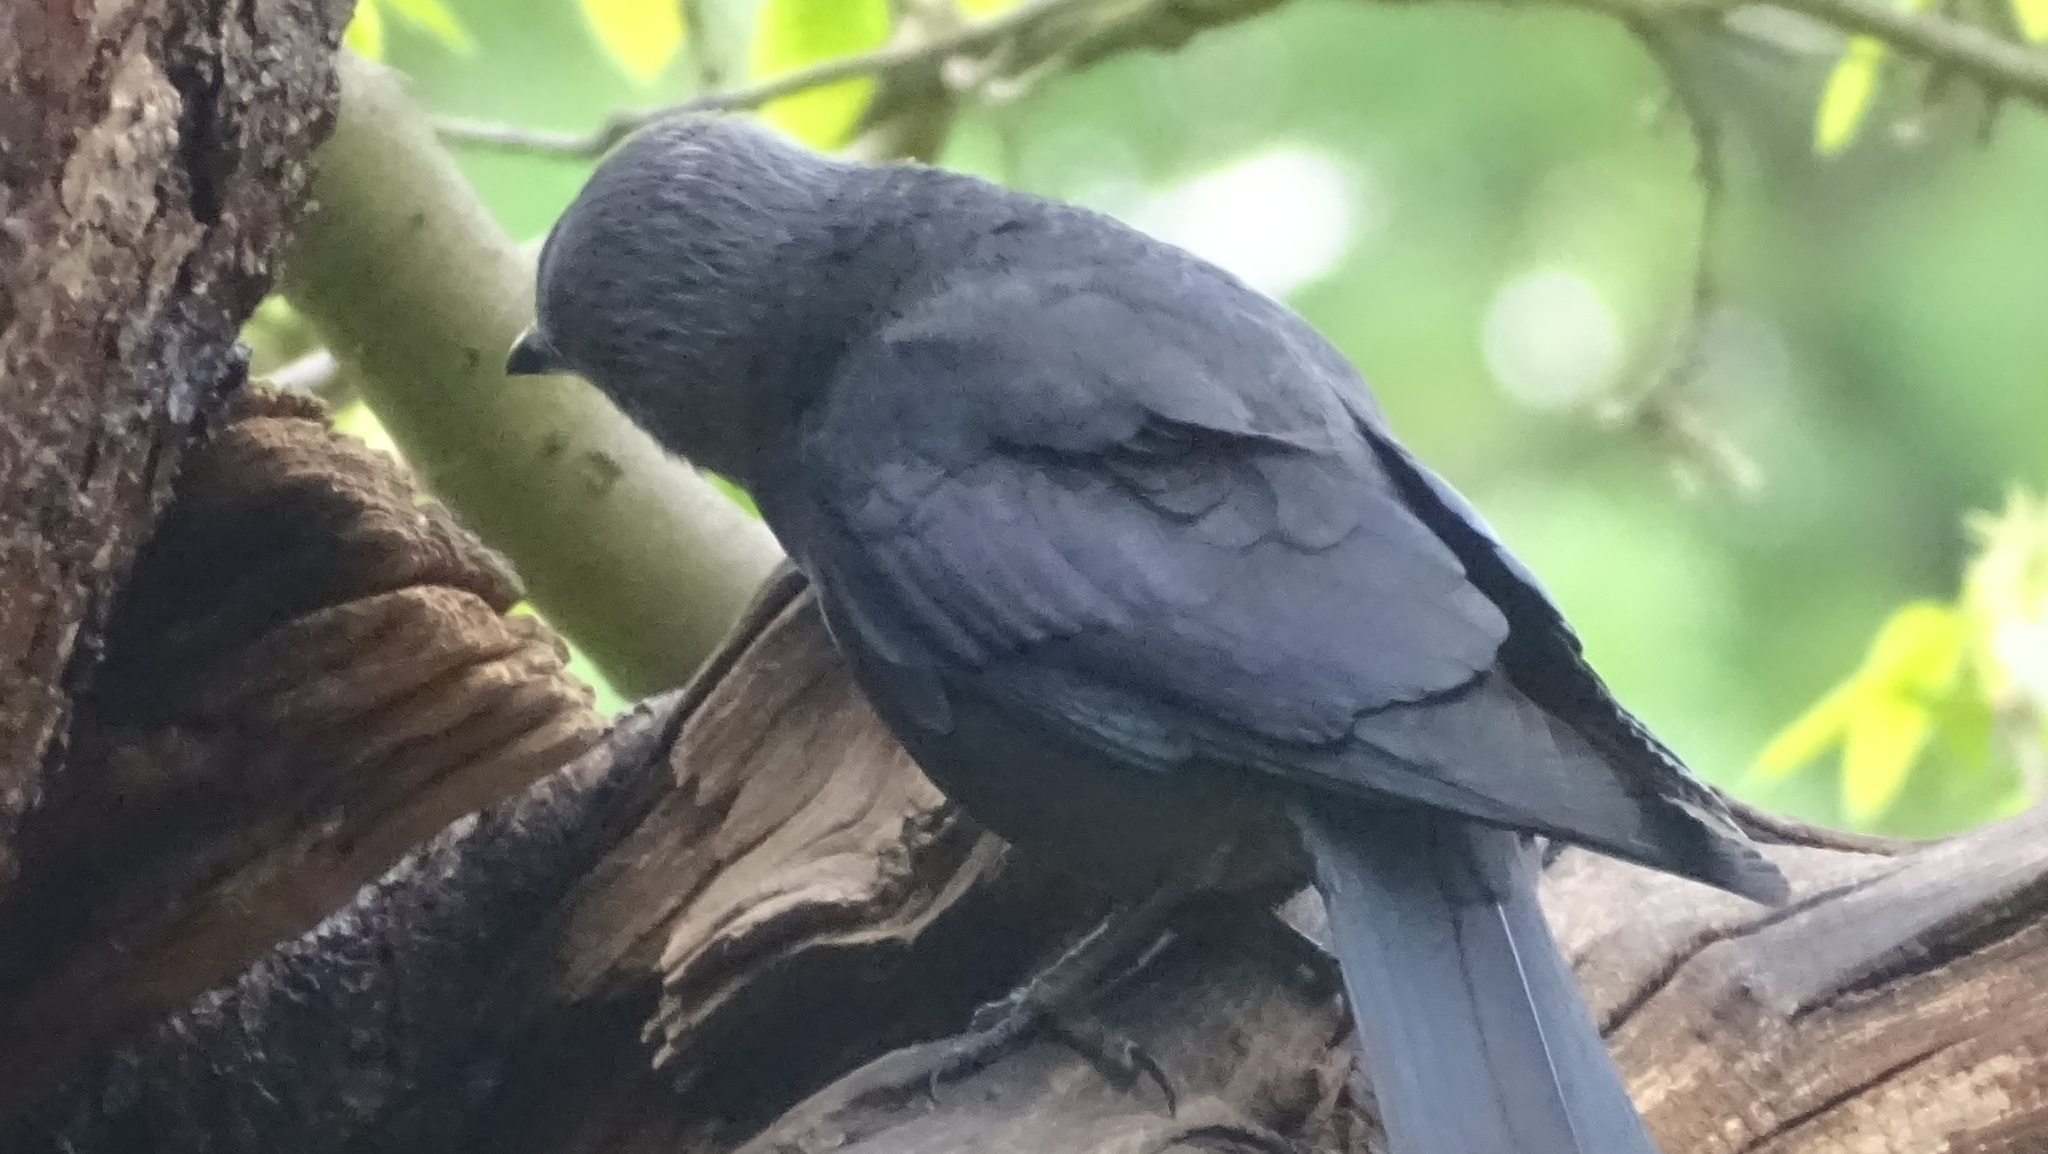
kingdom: Animalia
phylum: Chordata
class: Aves
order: Passeriformes
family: Corvidae
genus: Coloeus
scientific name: Coloeus monedula
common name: Western jackdaw
